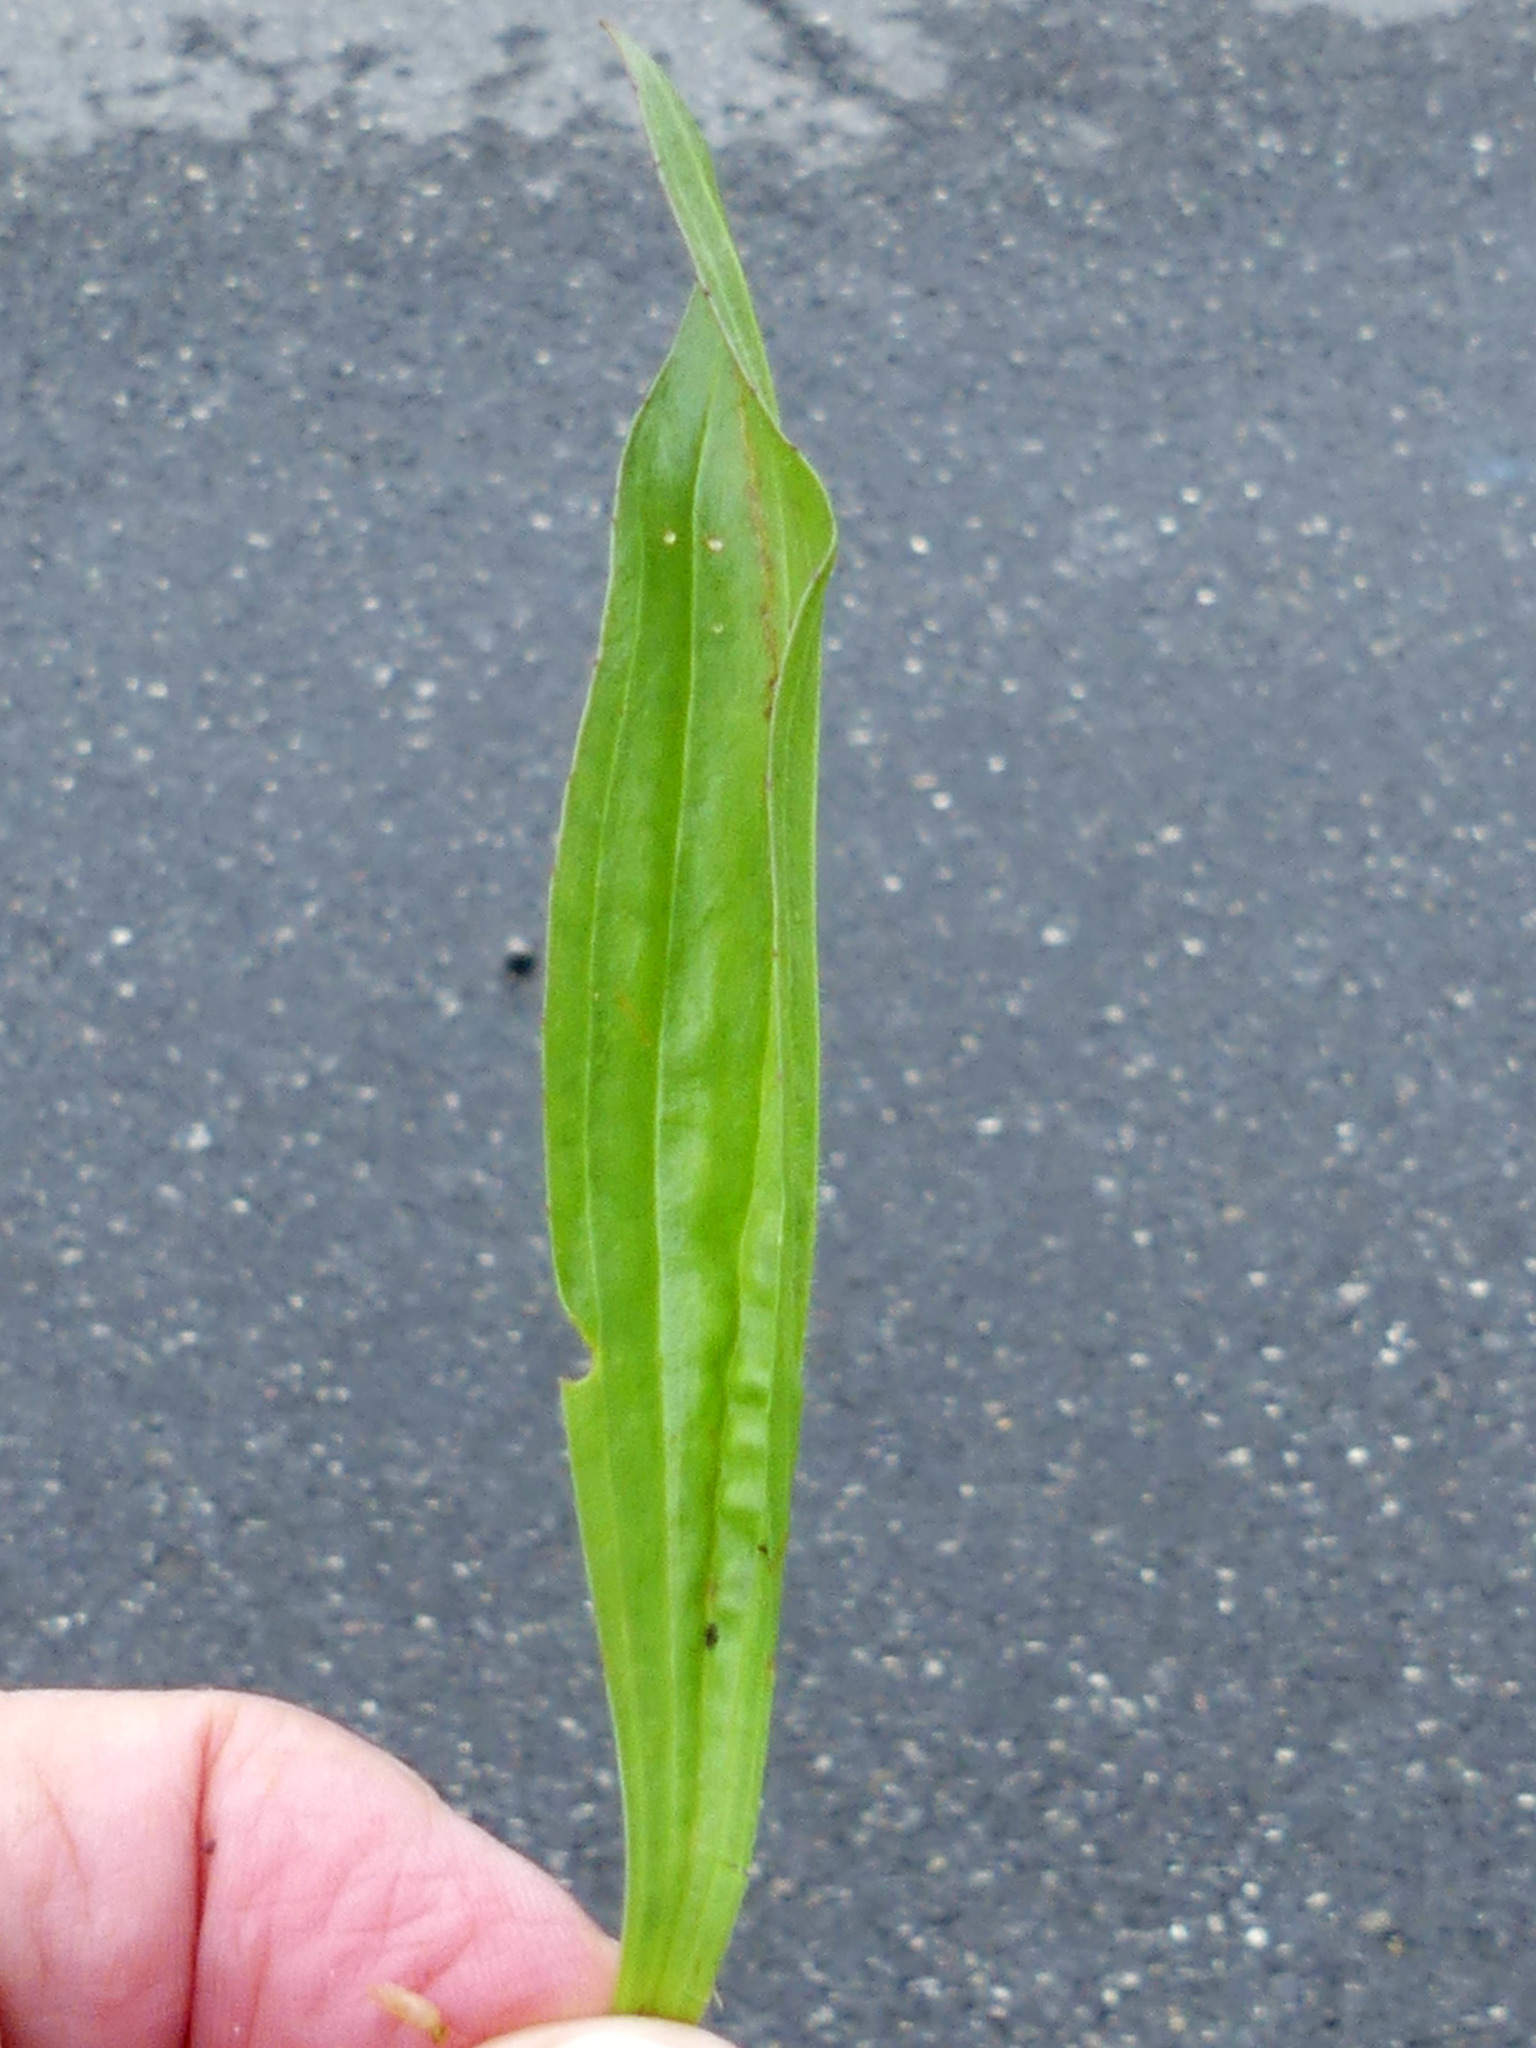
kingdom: Plantae
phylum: Tracheophyta
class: Magnoliopsida
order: Lamiales
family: Plantaginaceae
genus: Plantago
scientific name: Plantago lanceolata
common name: Ribwort plantain
